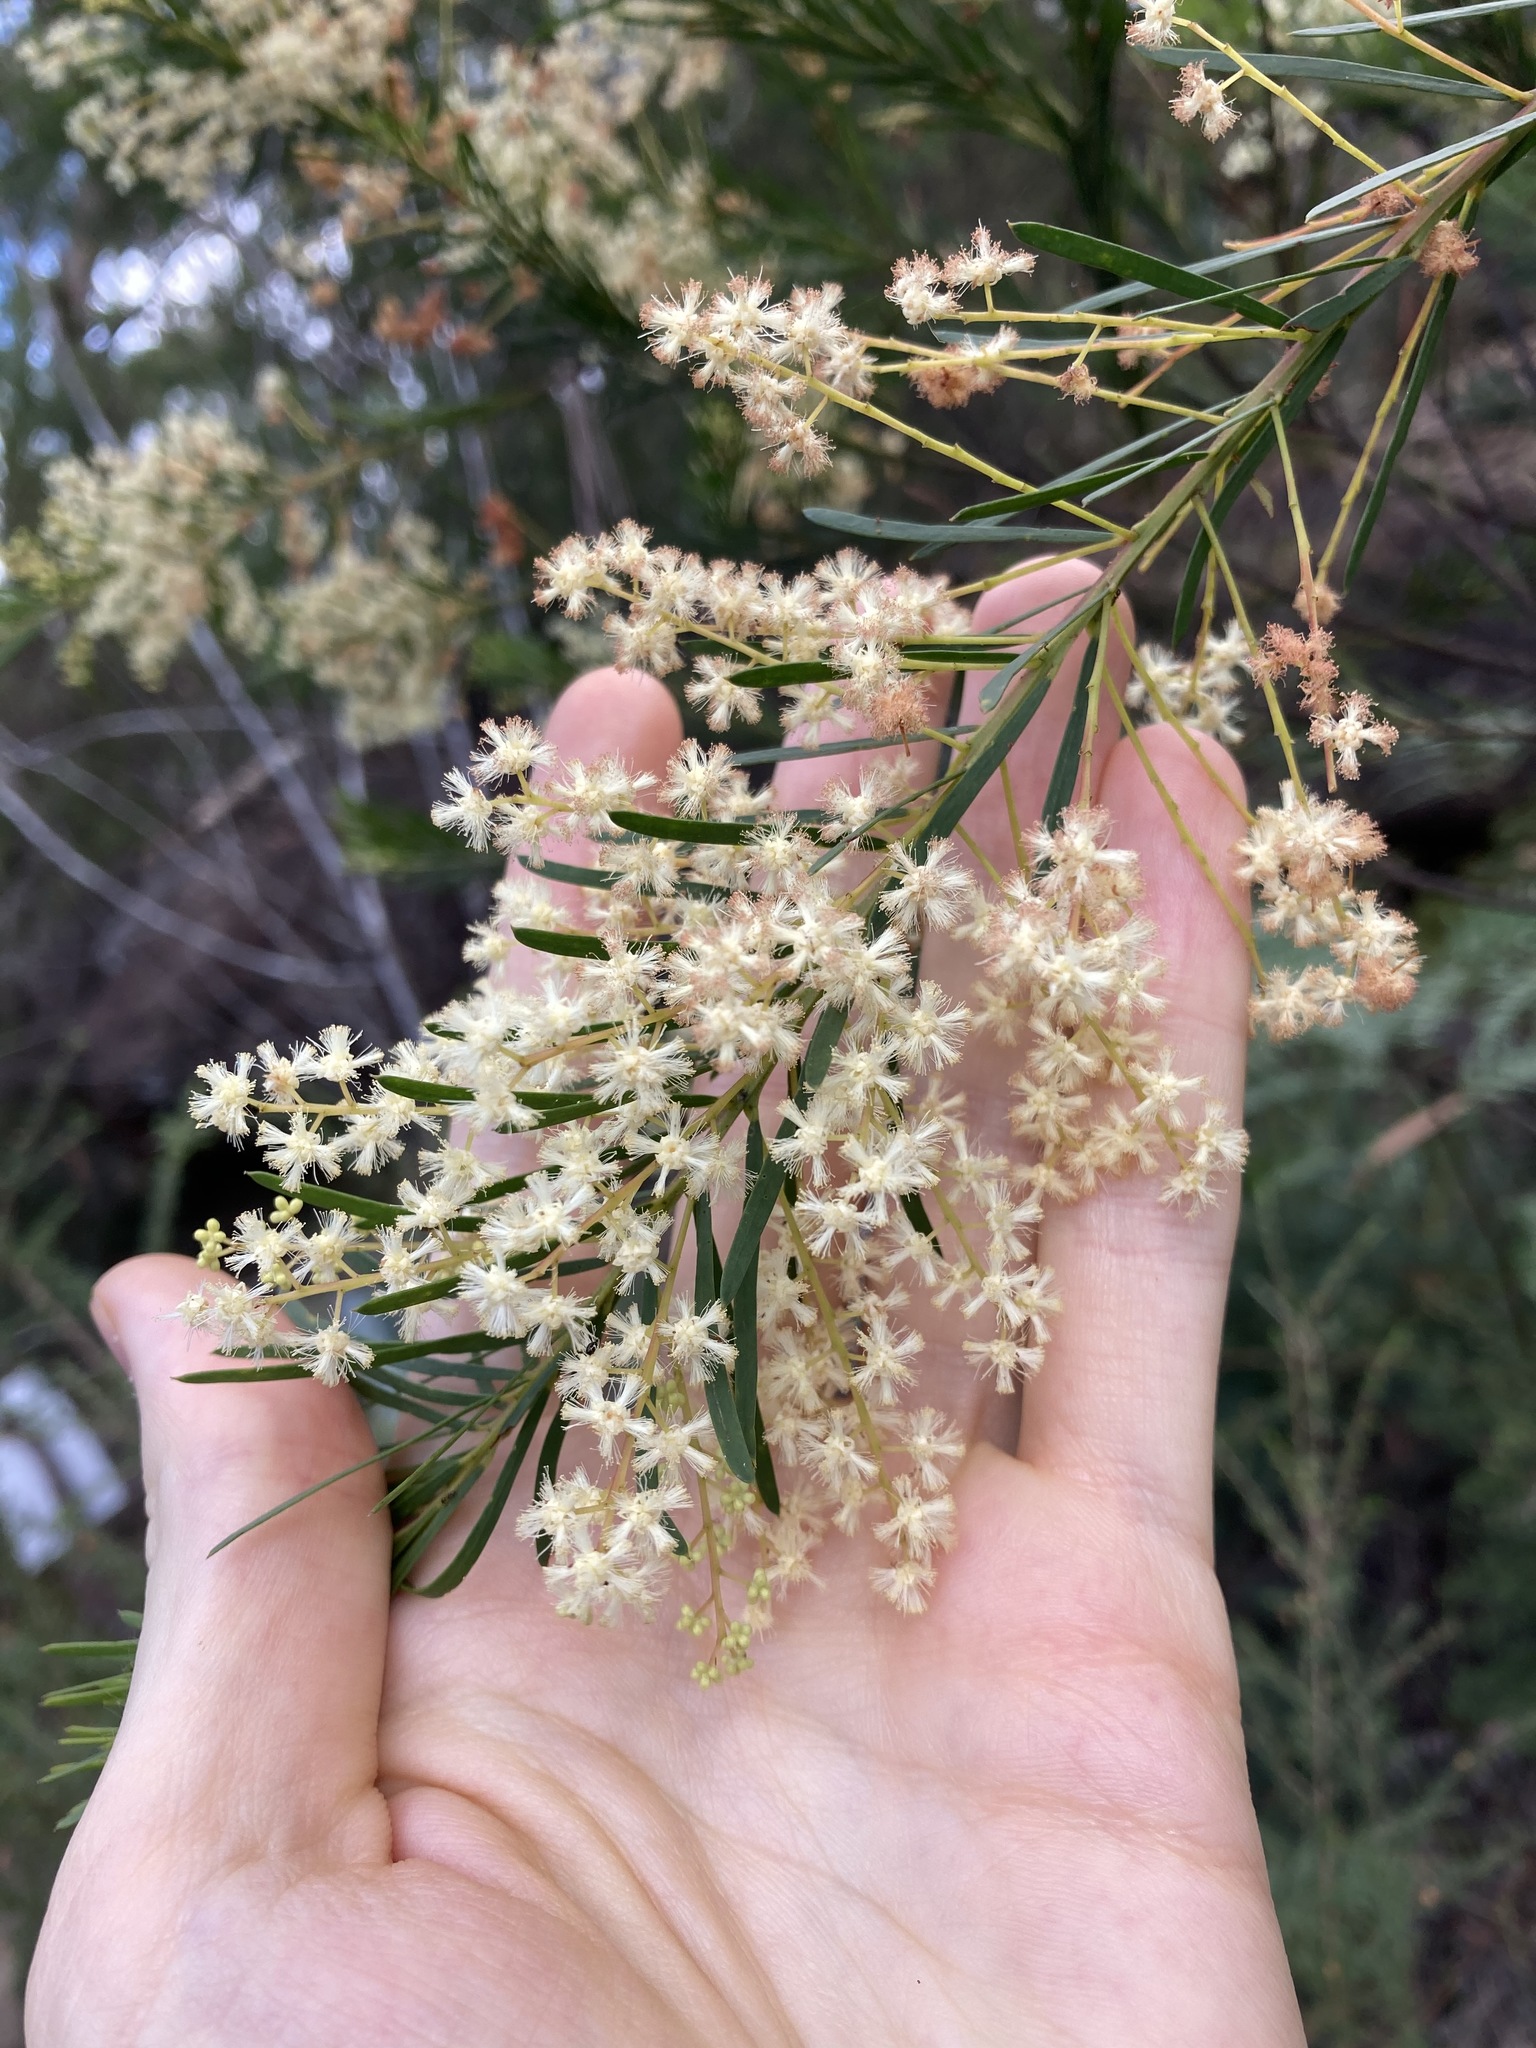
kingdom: Plantae
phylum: Tracheophyta
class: Magnoliopsida
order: Fabales
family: Fabaceae
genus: Acacia
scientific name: Acacia linifolia
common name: White wattle
